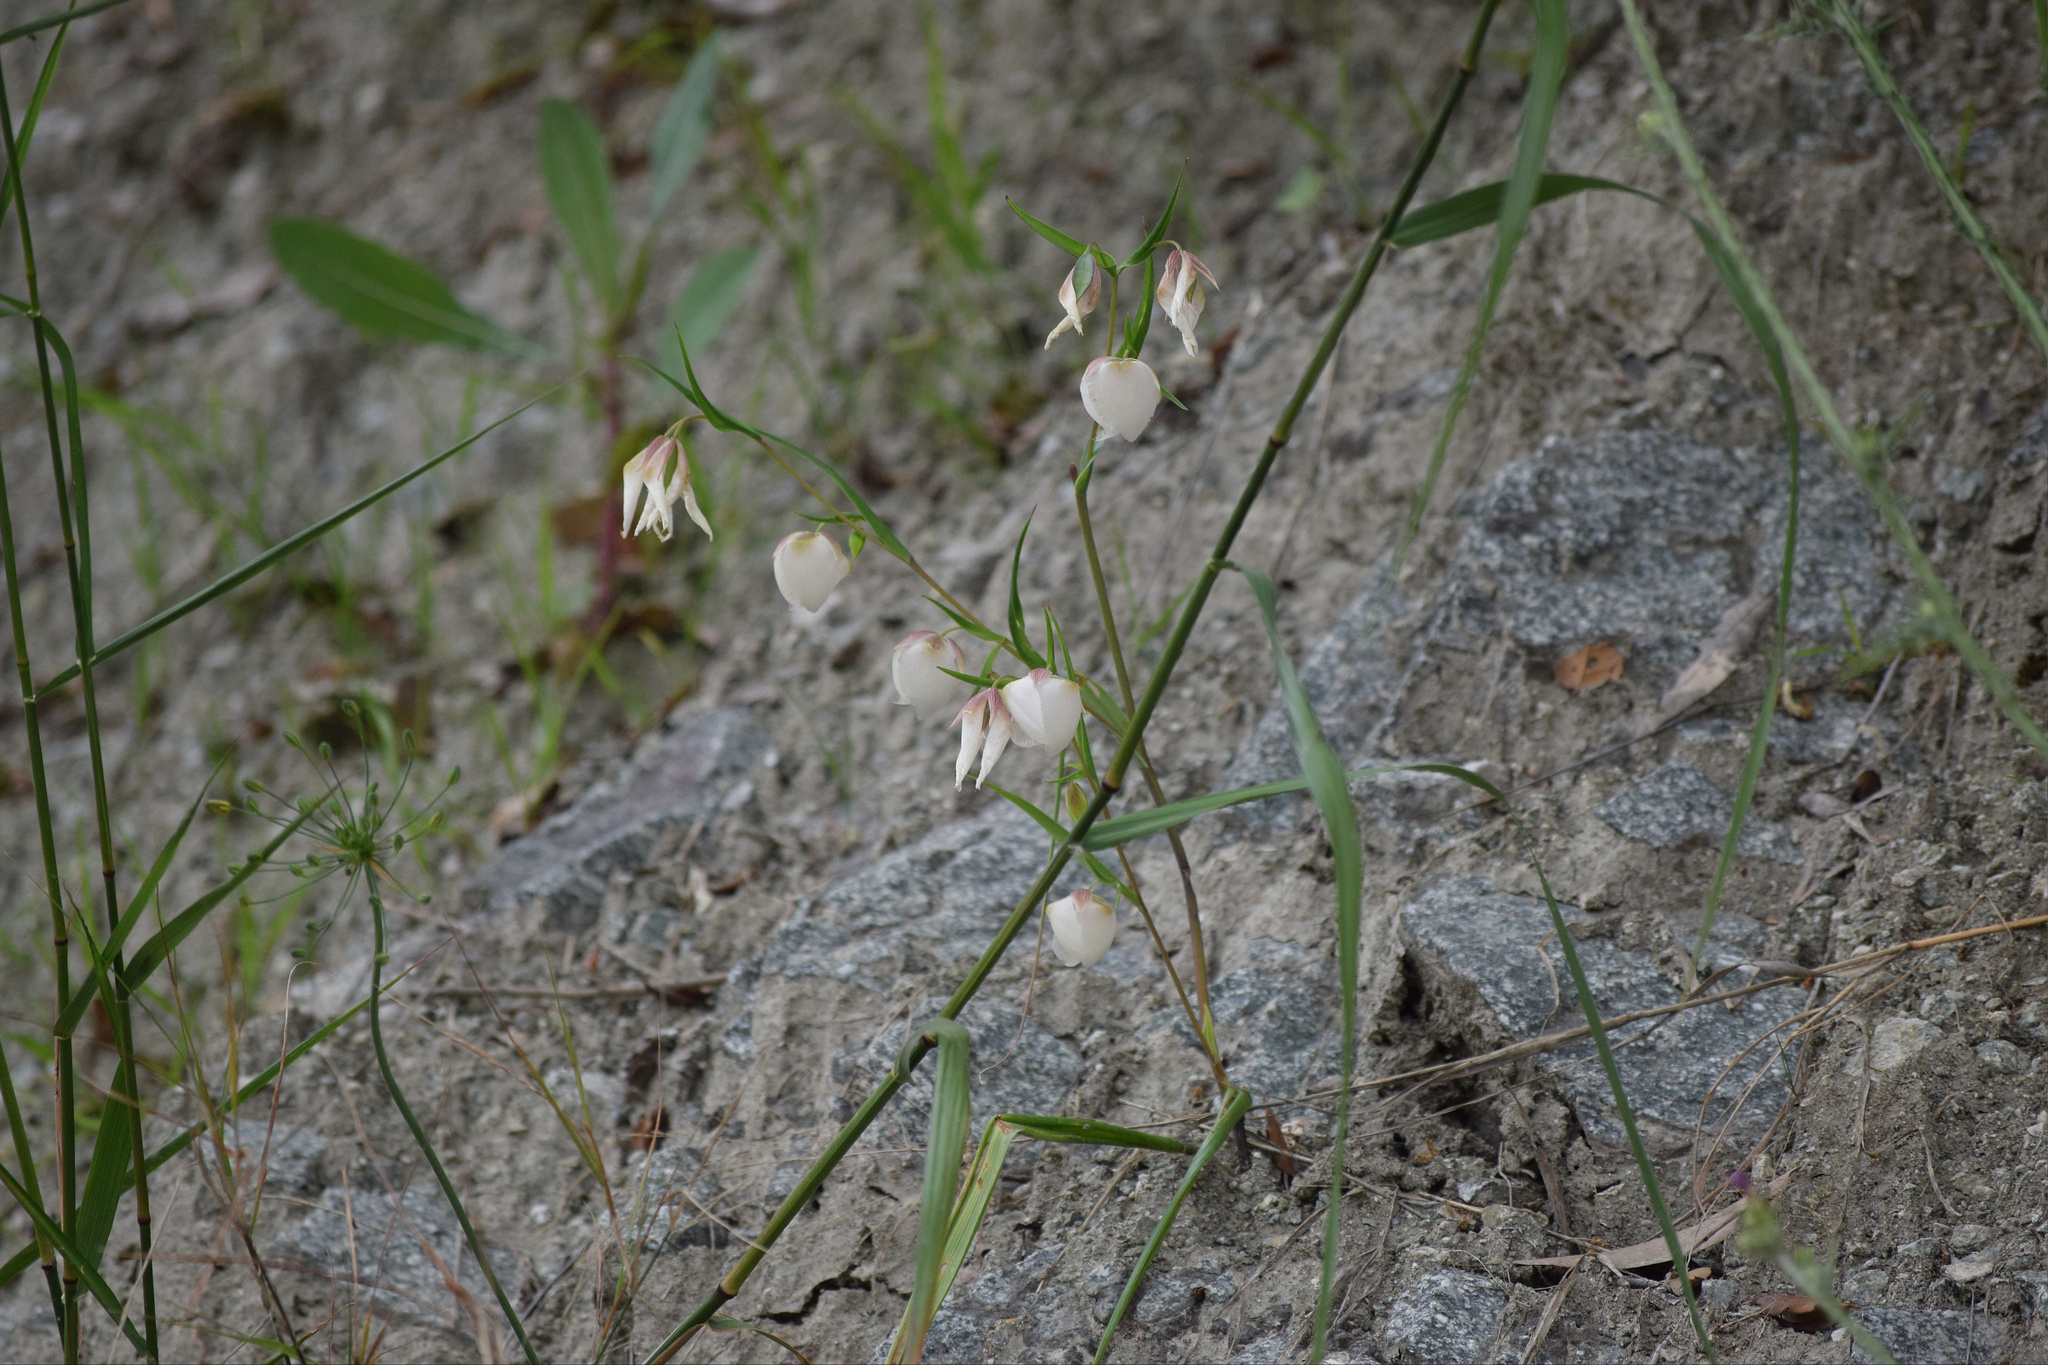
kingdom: Plantae
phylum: Tracheophyta
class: Liliopsida
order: Liliales
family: Liliaceae
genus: Calochortus
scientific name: Calochortus albus
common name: Fairy-lantern
